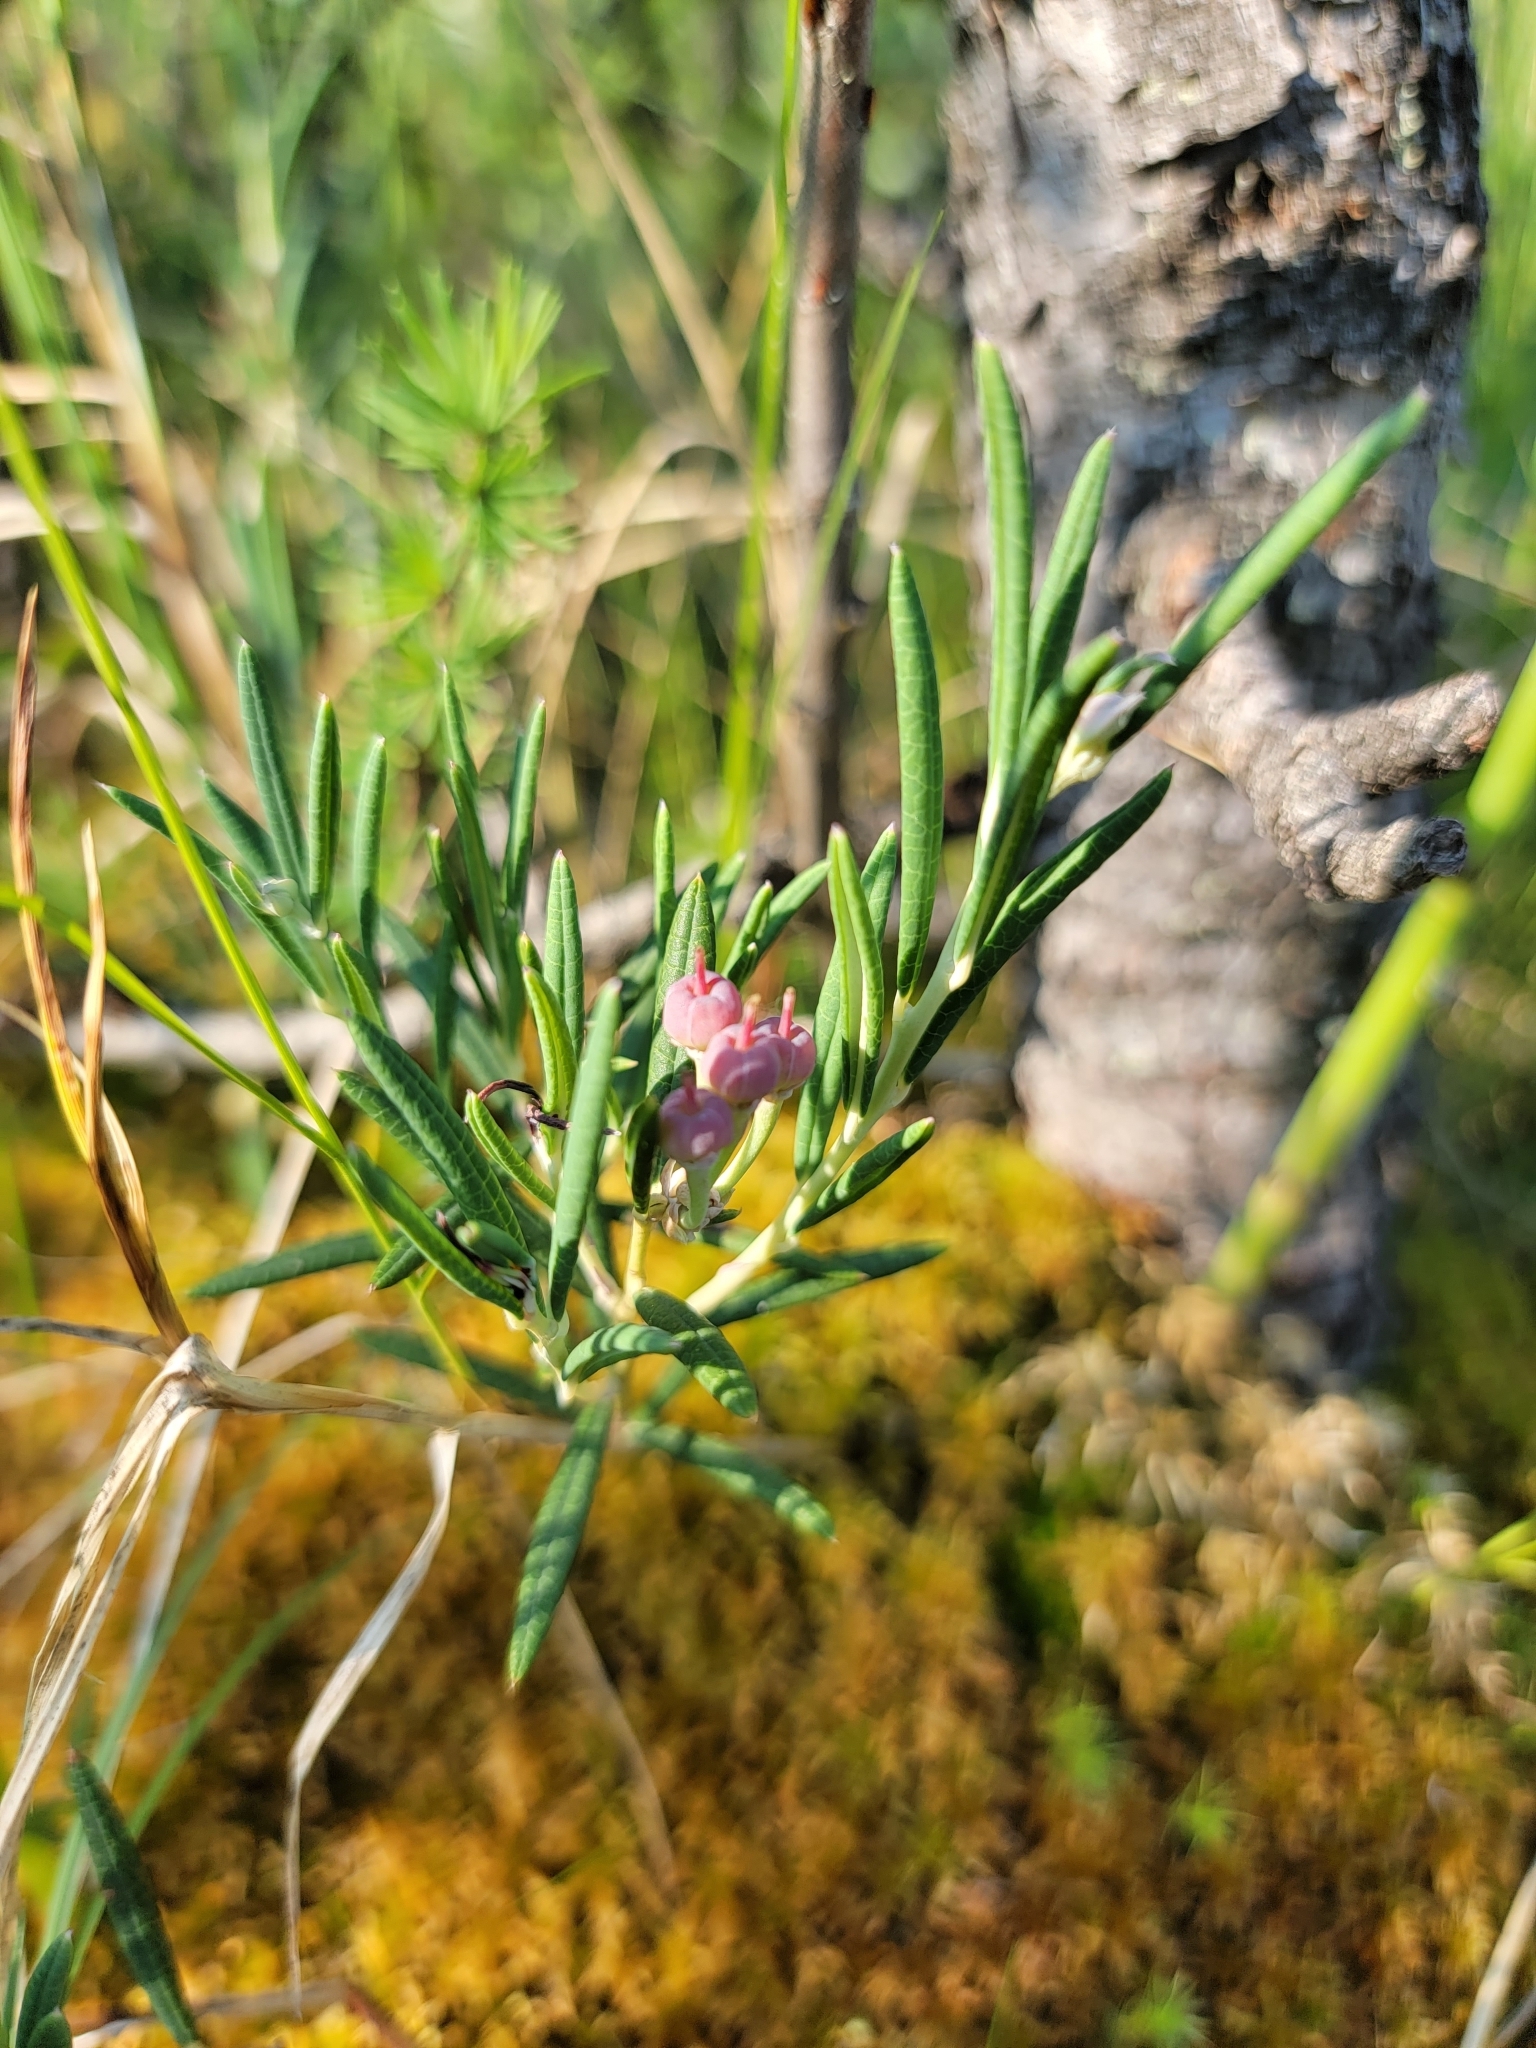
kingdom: Plantae
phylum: Tracheophyta
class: Magnoliopsida
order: Ericales
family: Ericaceae
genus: Andromeda
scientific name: Andromeda polifolia
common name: Bog-rosemary
